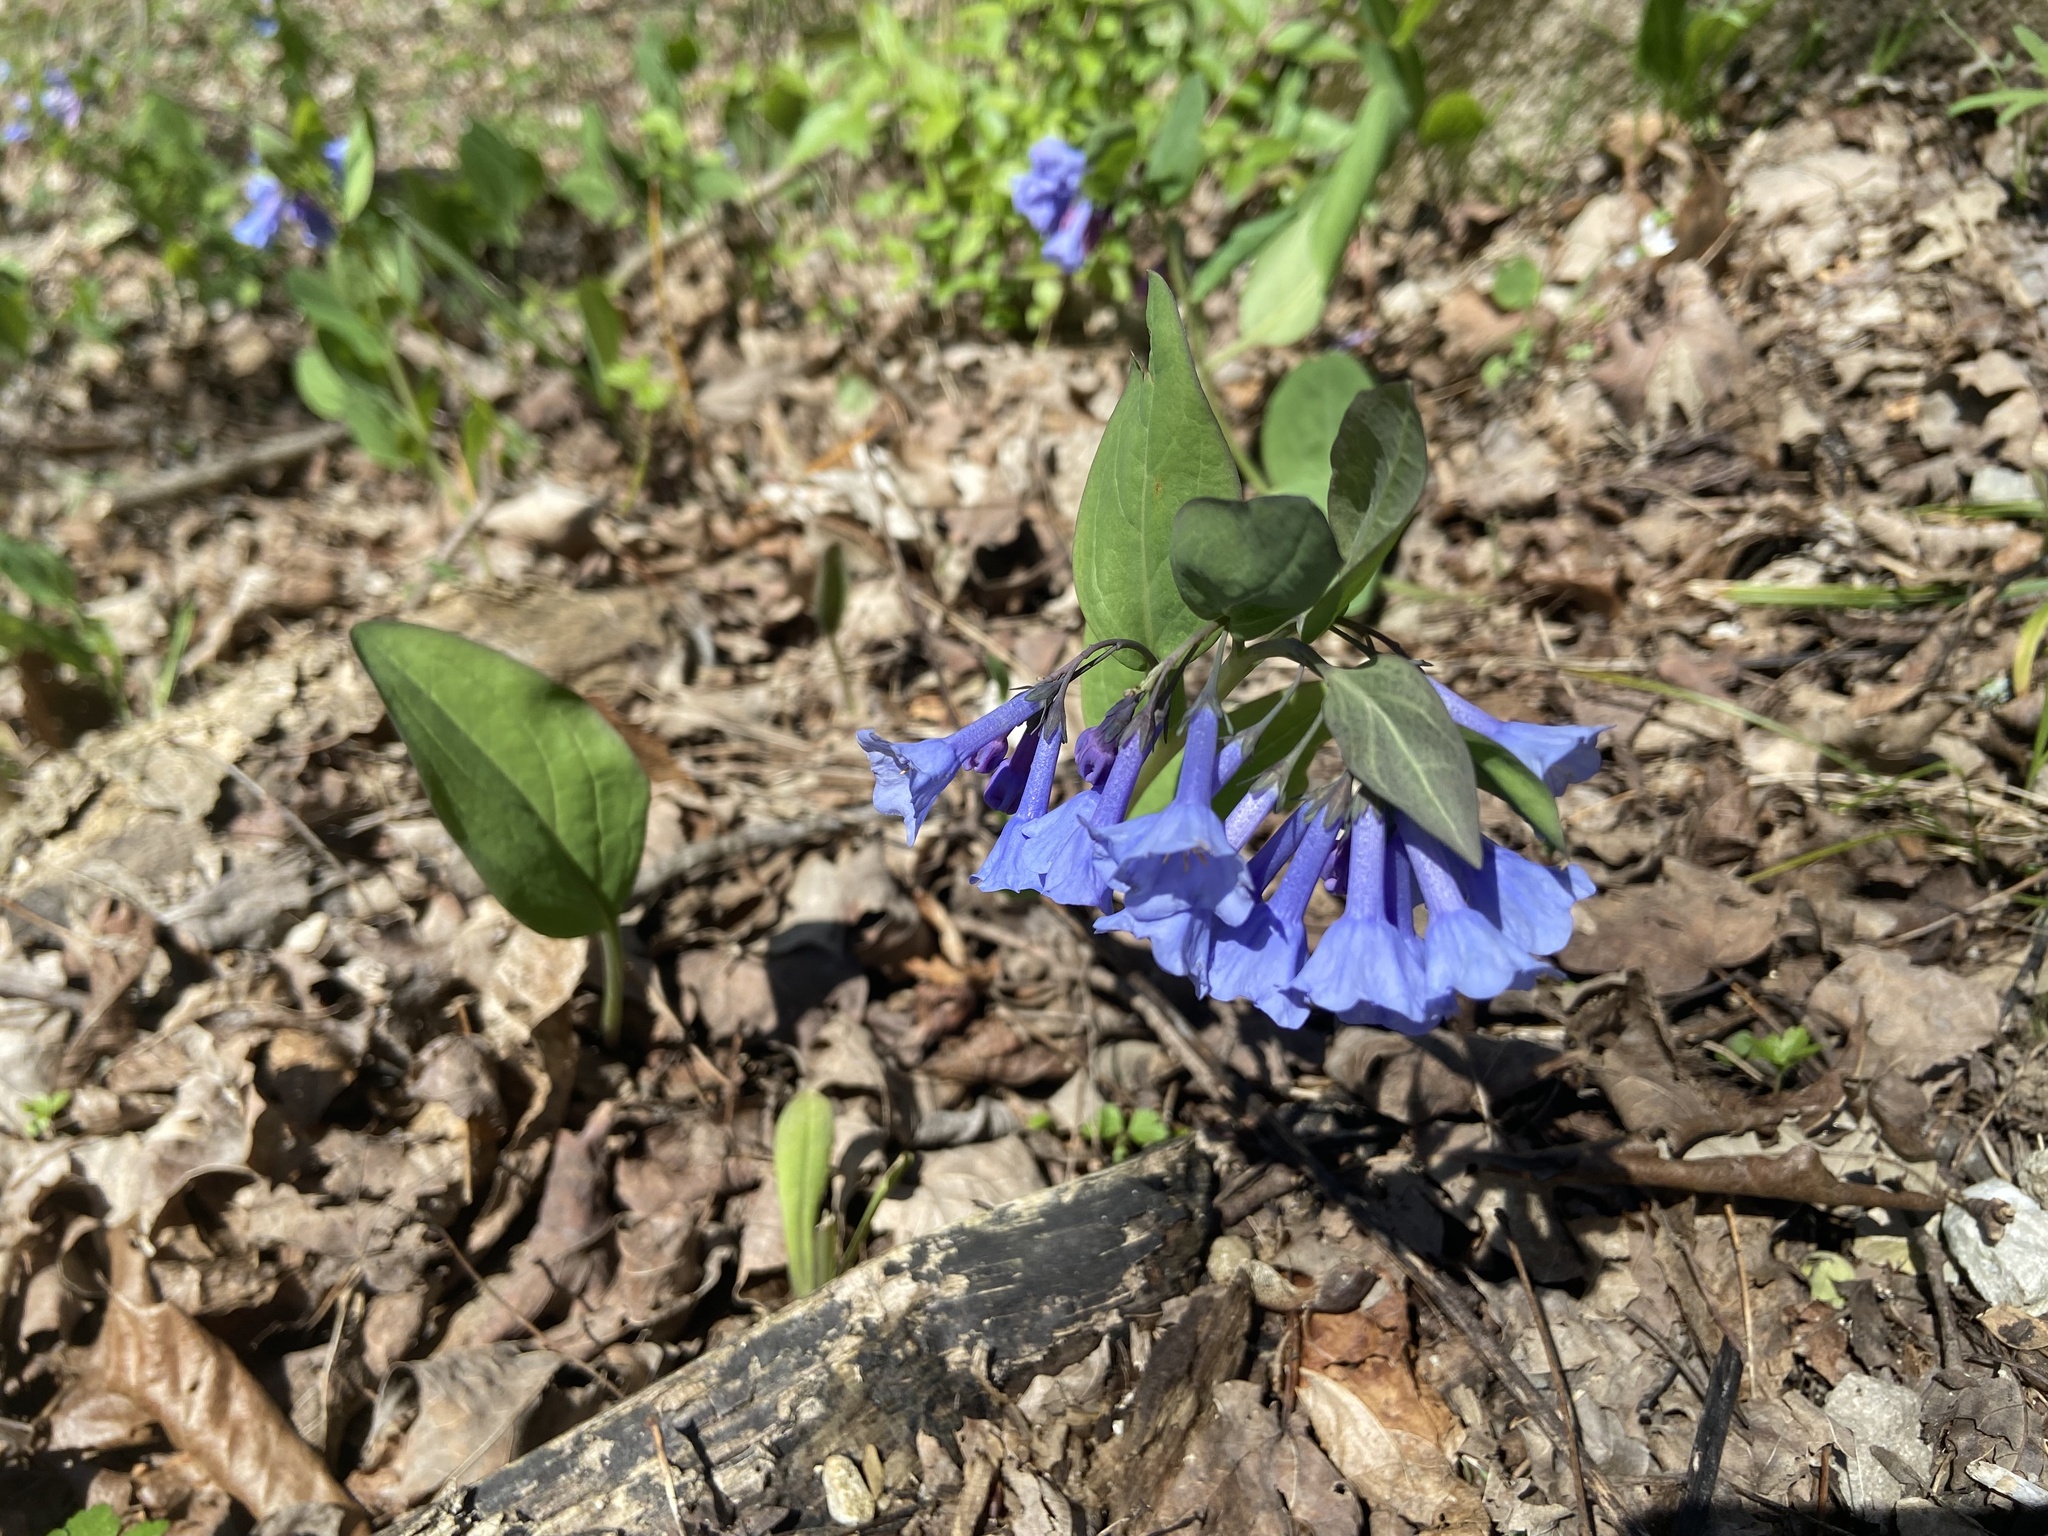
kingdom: Plantae
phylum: Tracheophyta
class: Magnoliopsida
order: Boraginales
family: Boraginaceae
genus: Mertensia
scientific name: Mertensia virginica
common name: Virginia bluebells
